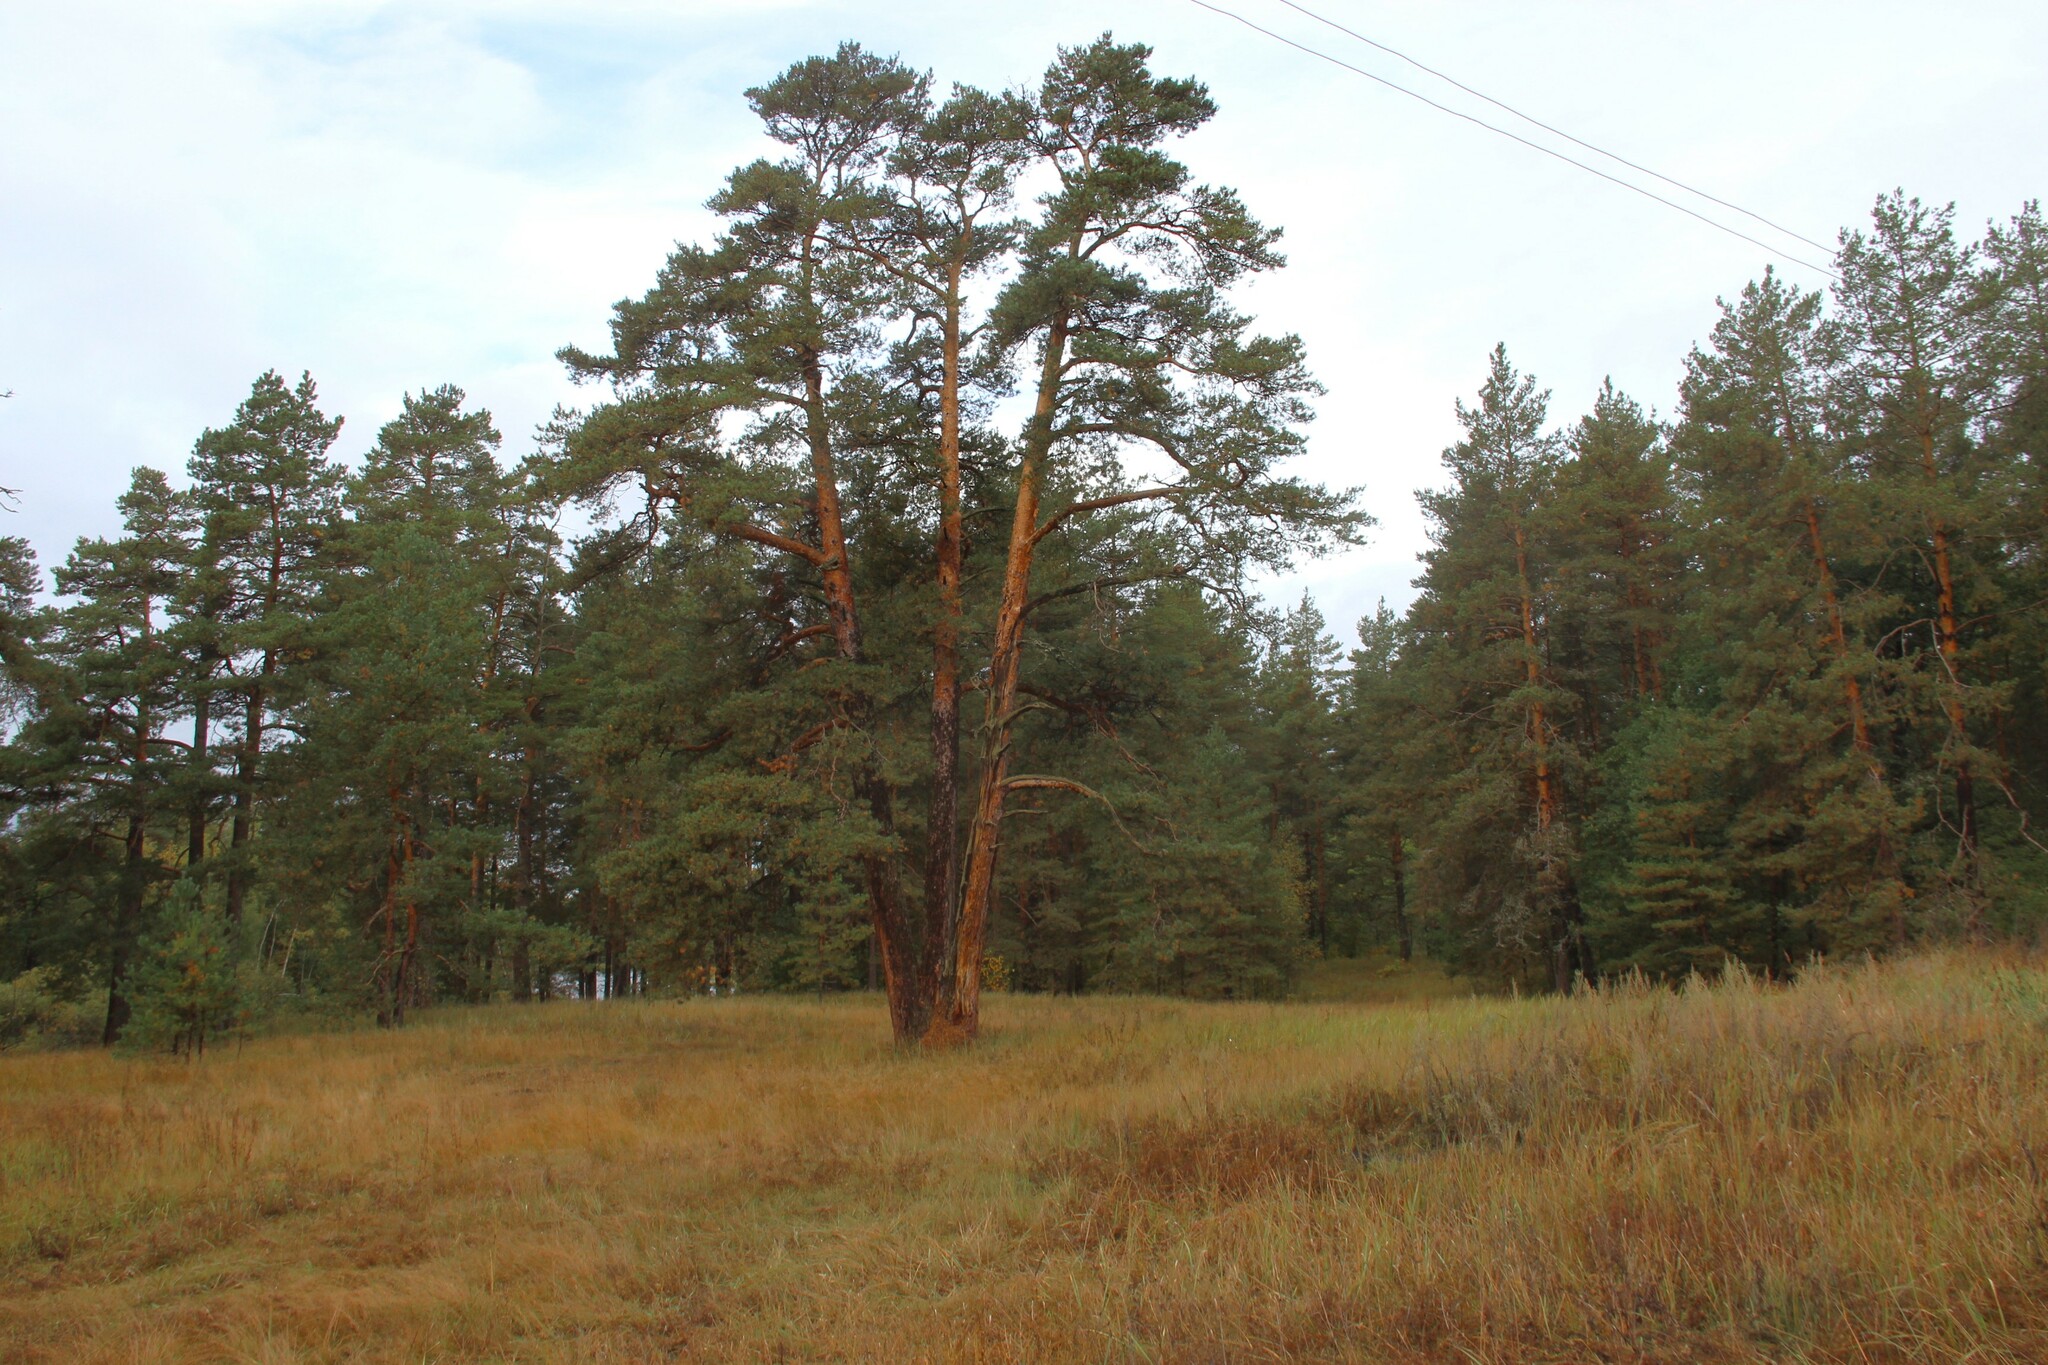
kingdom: Plantae
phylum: Tracheophyta
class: Pinopsida
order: Pinales
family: Pinaceae
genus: Pinus
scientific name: Pinus sylvestris
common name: Scots pine
